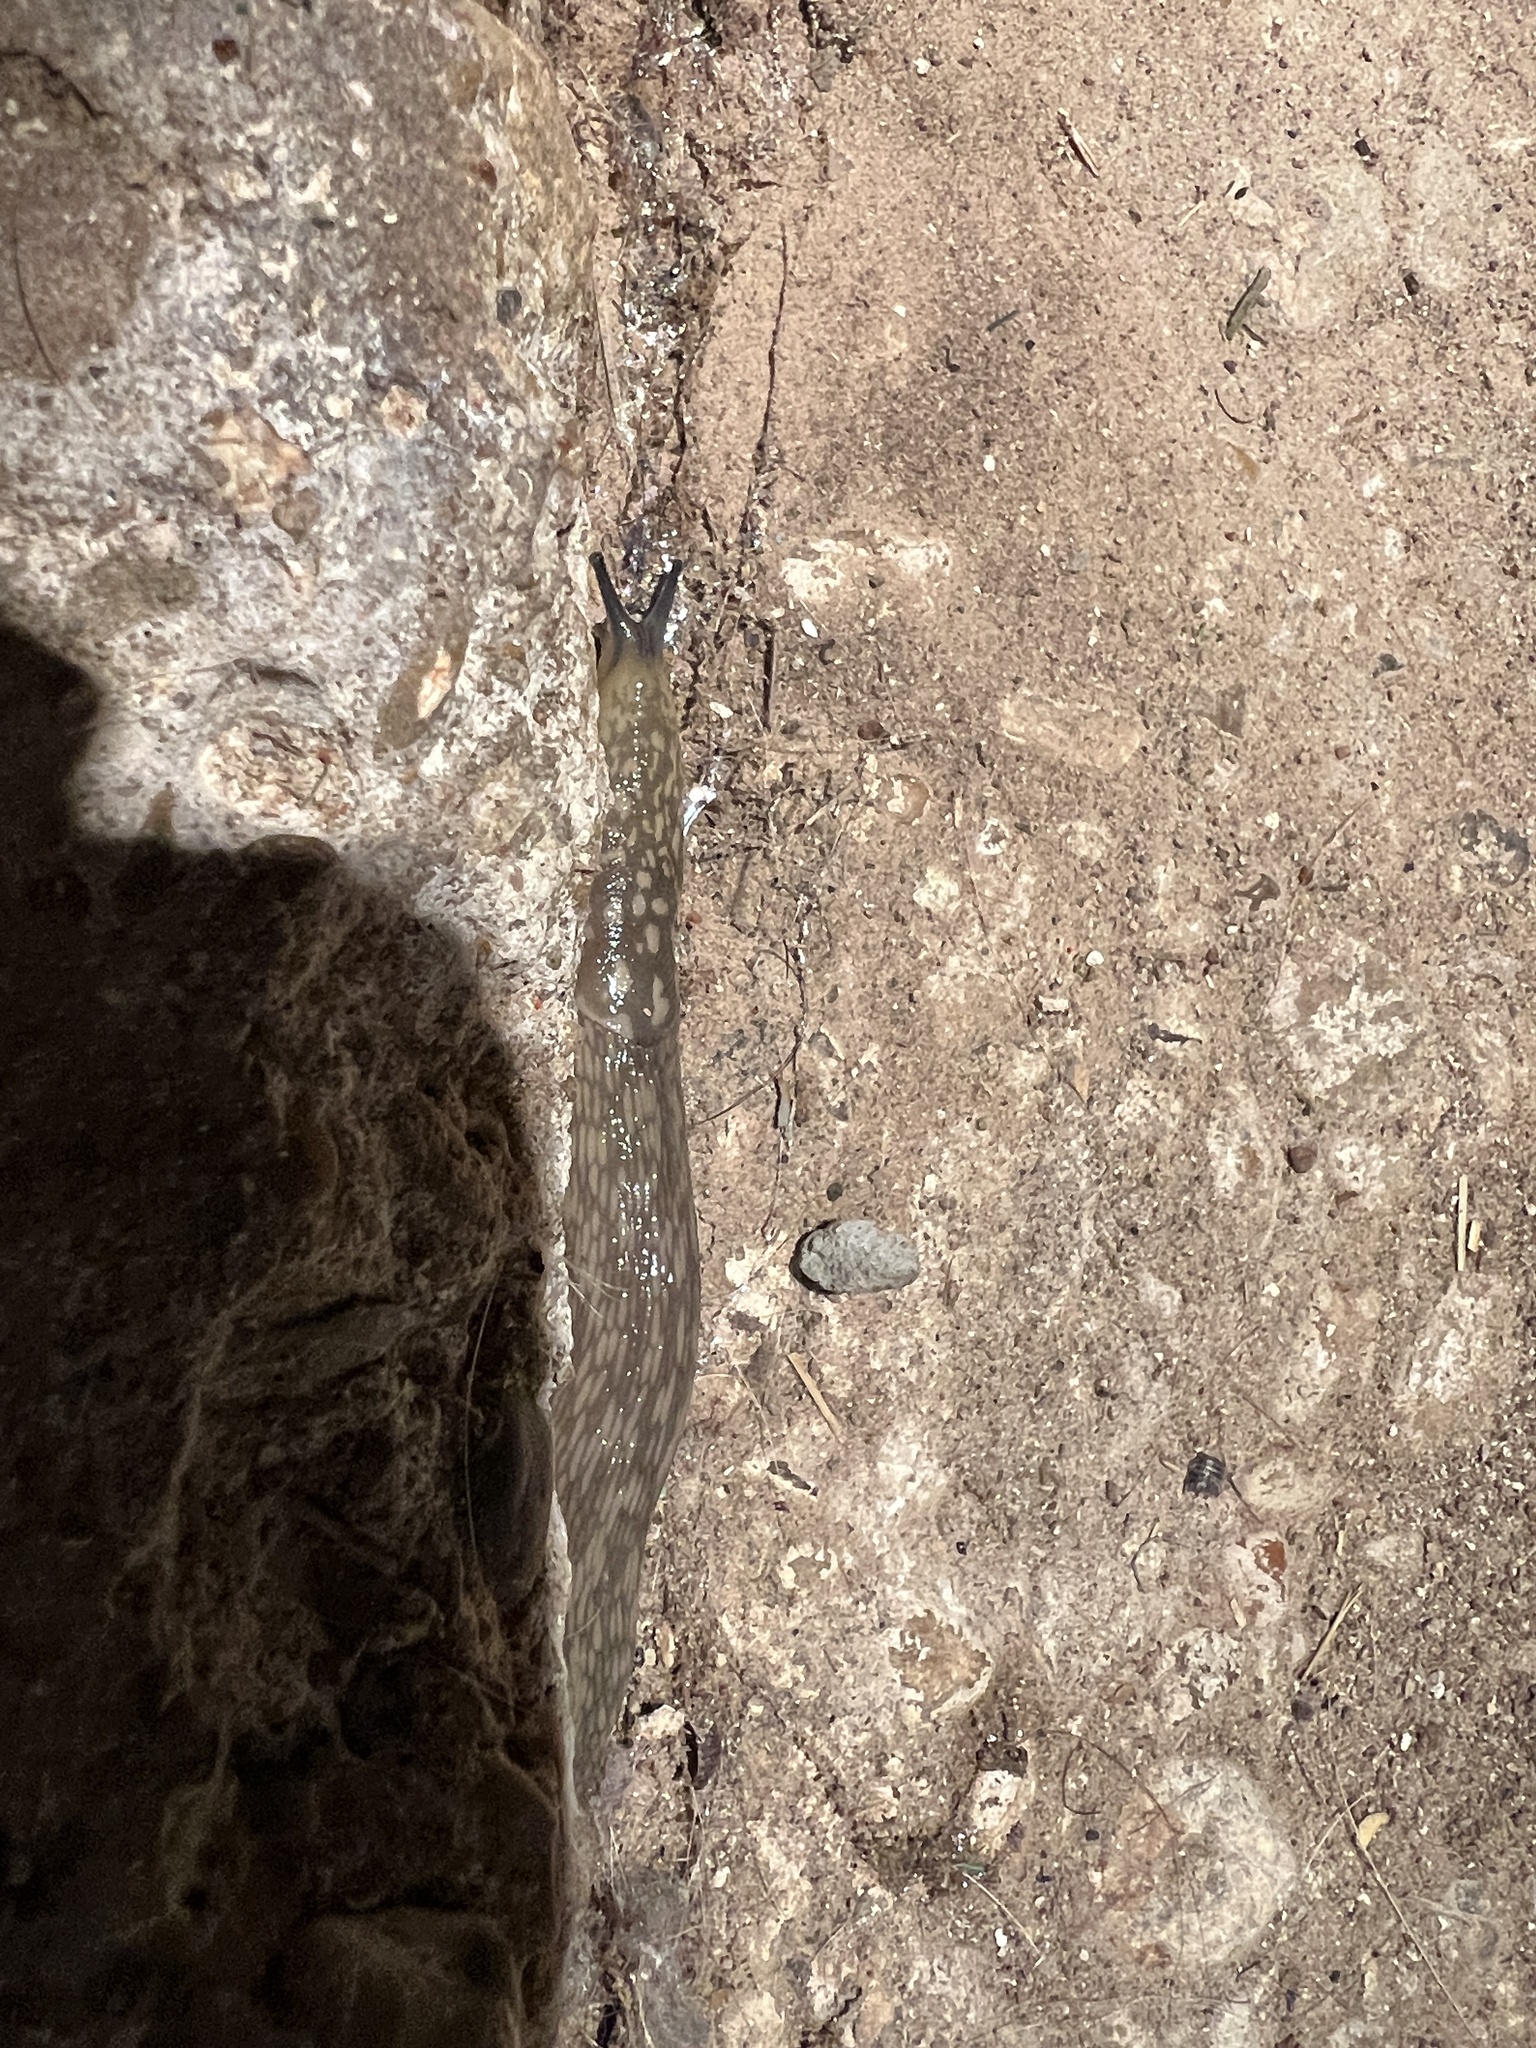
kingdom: Animalia
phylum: Mollusca
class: Gastropoda
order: Stylommatophora
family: Limacidae
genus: Limacus
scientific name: Limacus flavus
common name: Yellow gardenslug
